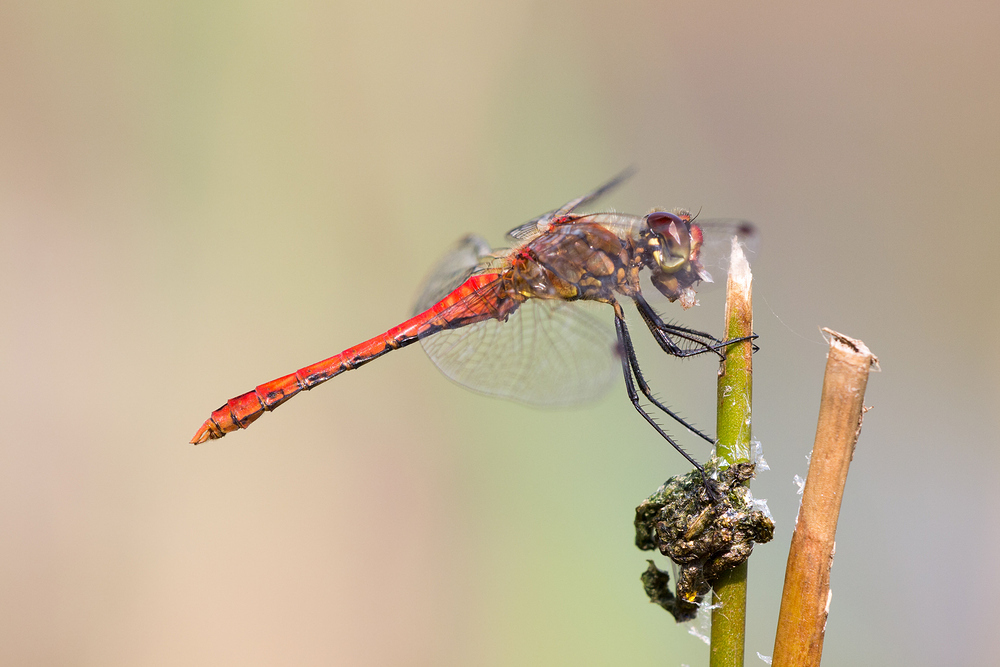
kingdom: Animalia
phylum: Arthropoda
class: Insecta
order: Odonata
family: Libellulidae
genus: Sympetrum
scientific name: Sympetrum sanguineum
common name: Ruddy darter
